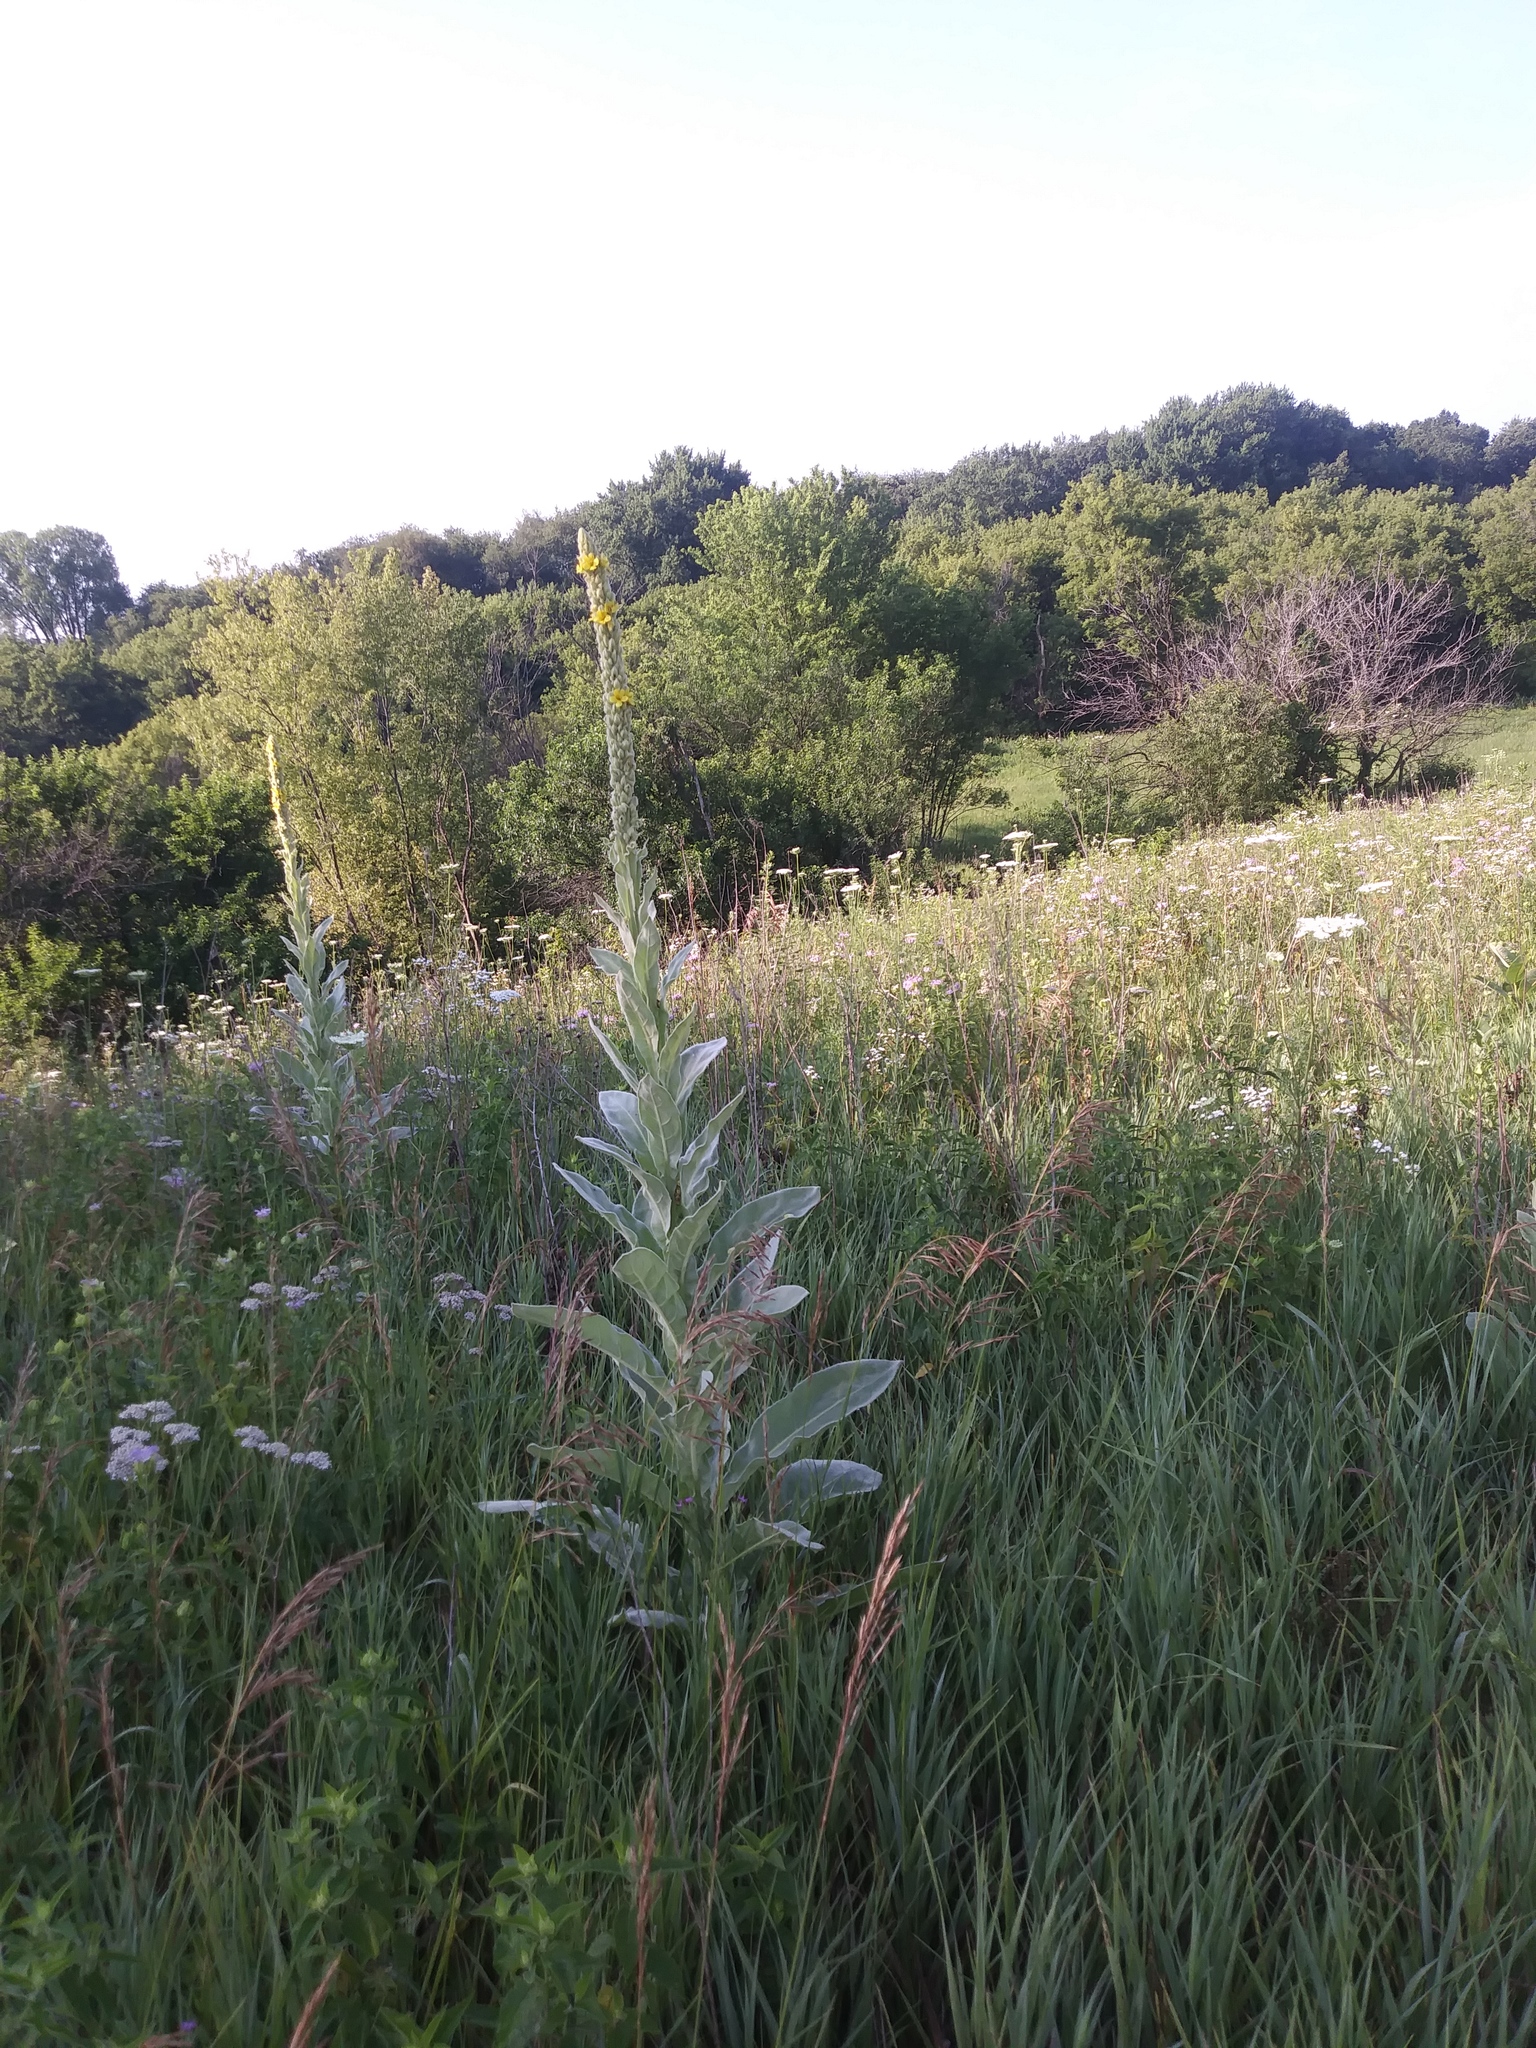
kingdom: Plantae
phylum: Tracheophyta
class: Magnoliopsida
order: Lamiales
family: Scrophulariaceae
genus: Verbascum
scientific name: Verbascum thapsus
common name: Common mullein
